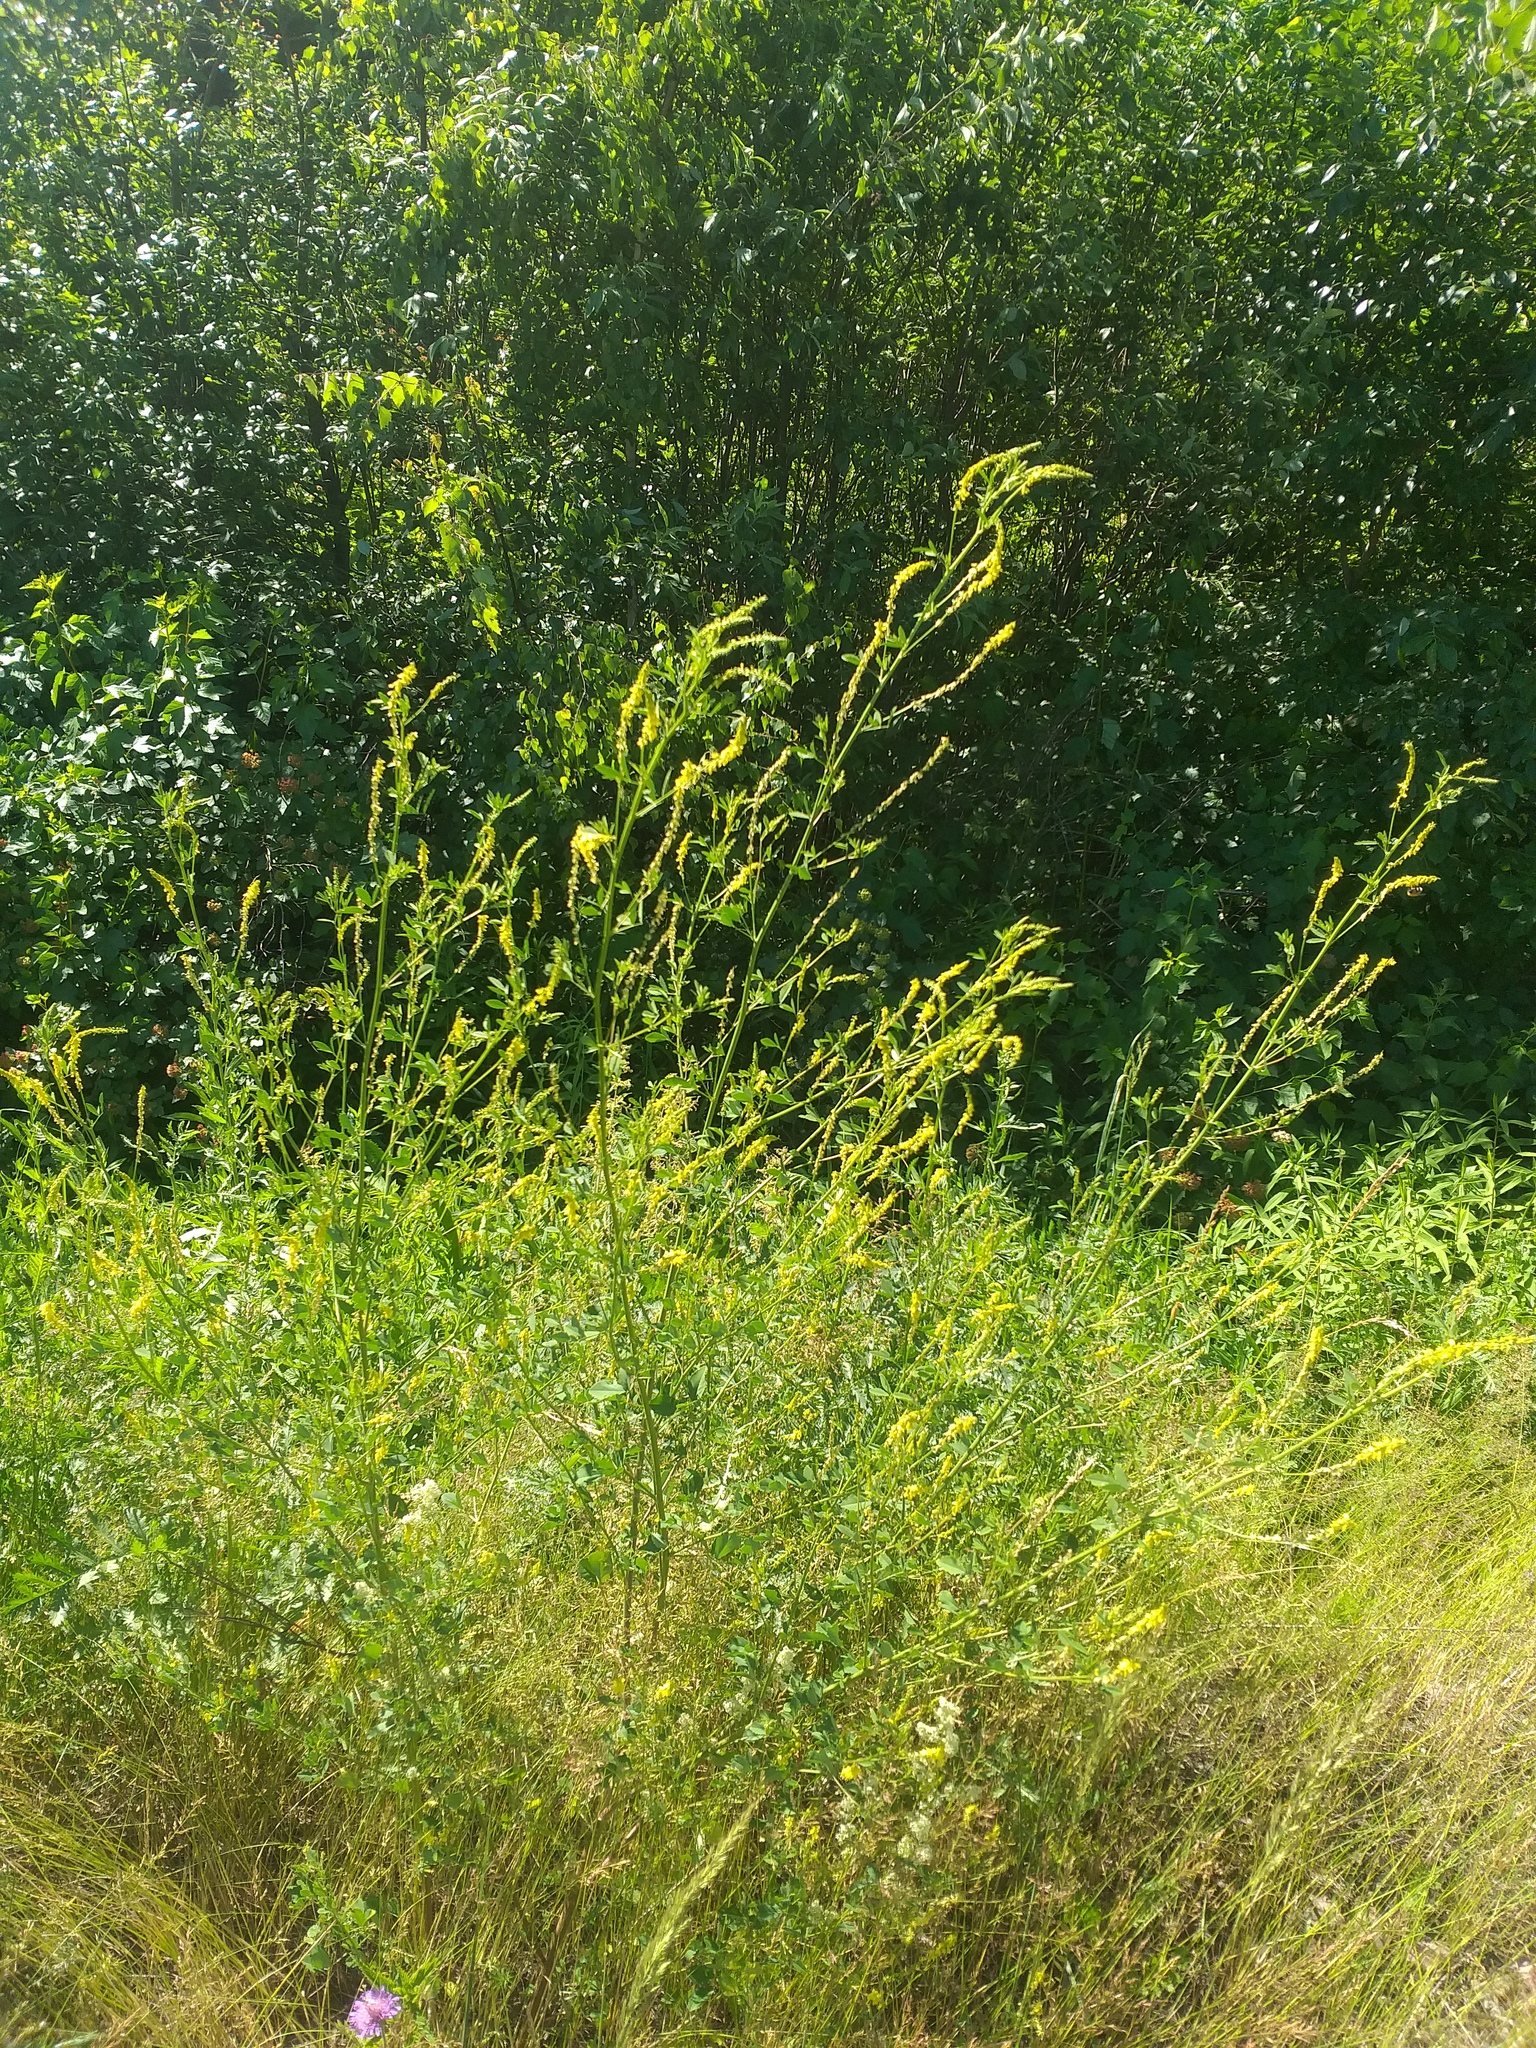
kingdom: Plantae
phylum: Tracheophyta
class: Magnoliopsida
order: Fabales
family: Fabaceae
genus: Melilotus
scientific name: Melilotus officinalis
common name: Sweetclover
